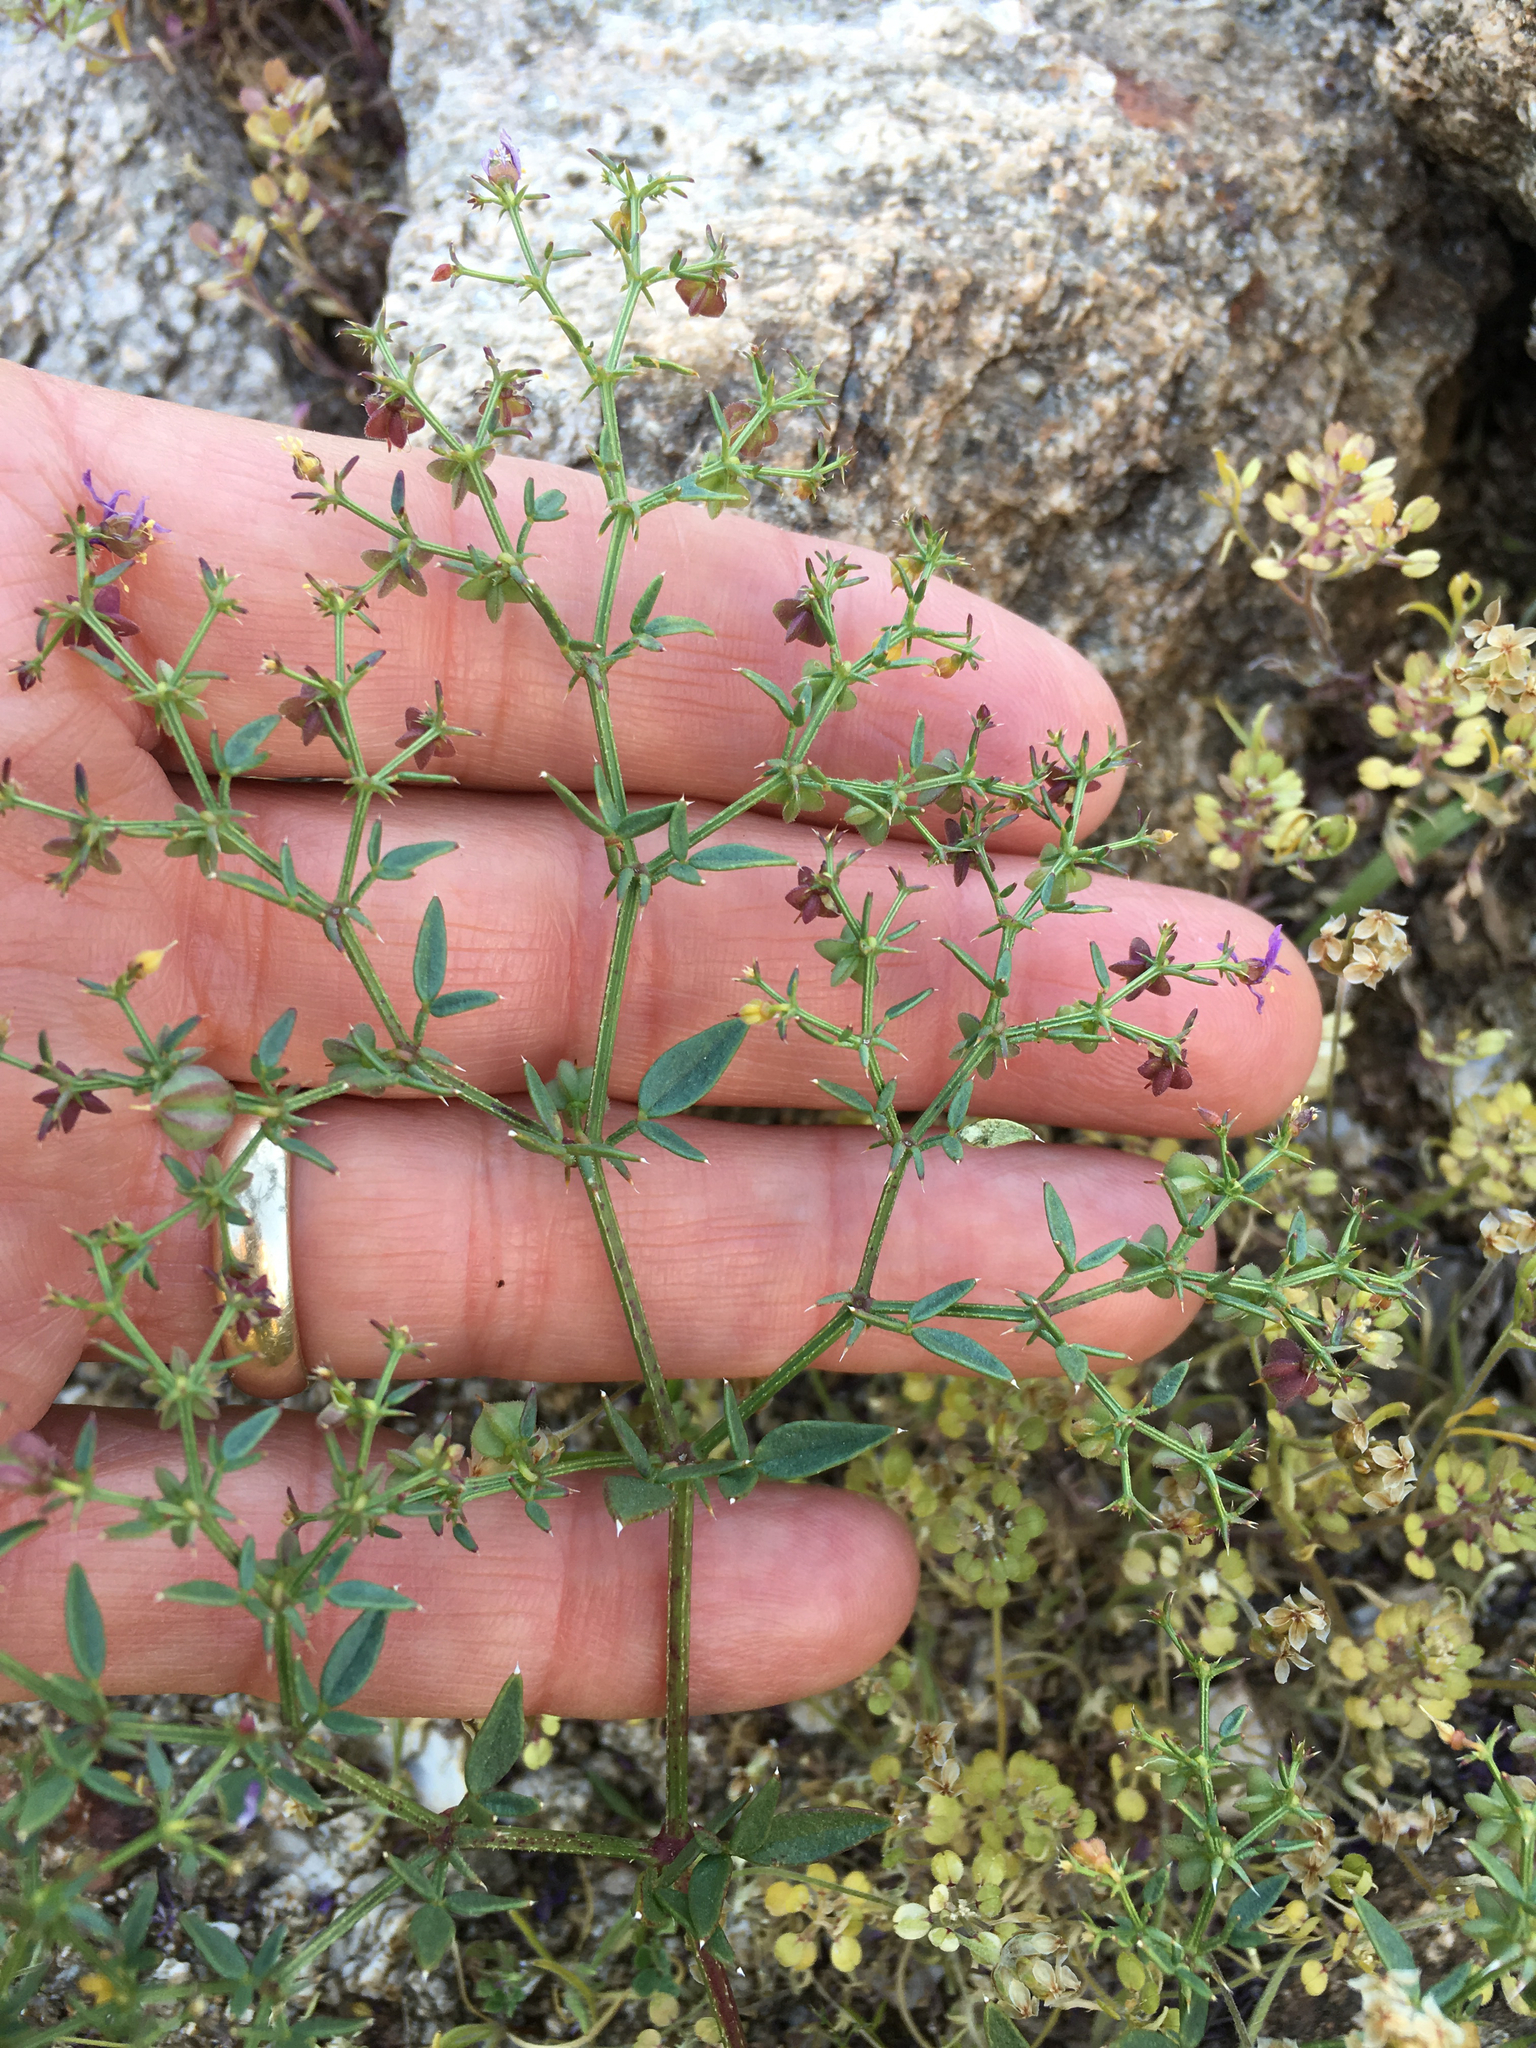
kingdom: Plantae
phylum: Tracheophyta
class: Magnoliopsida
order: Zygophyllales
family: Zygophyllaceae
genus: Fagonia
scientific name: Fagonia laevis
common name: California fagonbush
